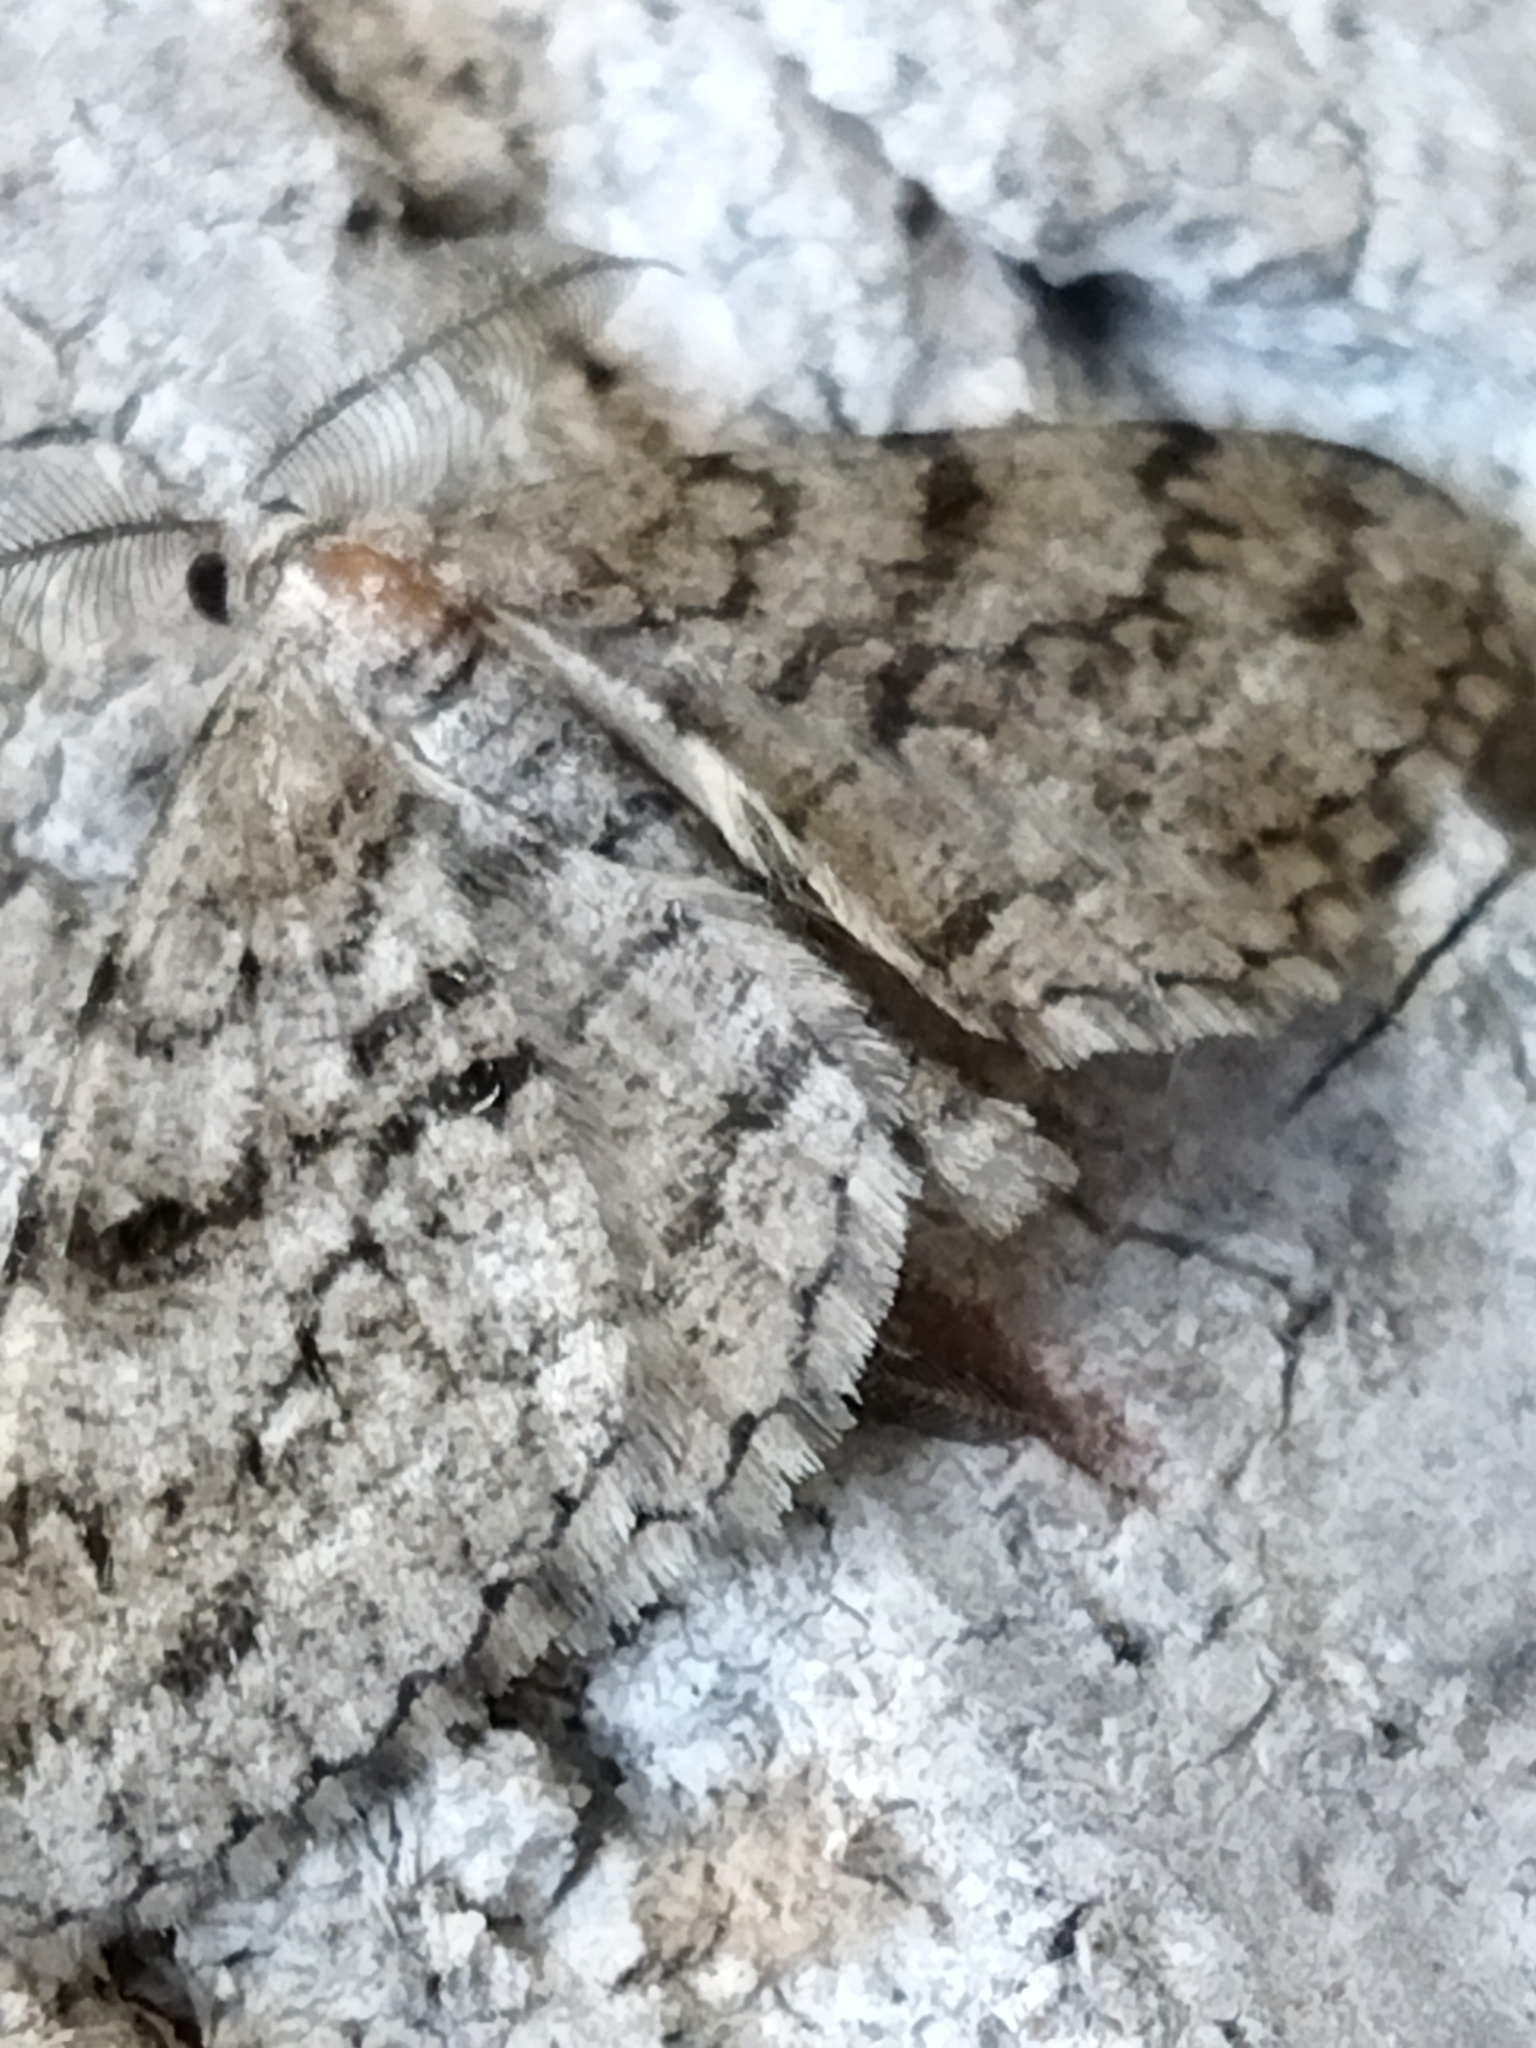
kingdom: Animalia
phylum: Arthropoda
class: Insecta
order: Lepidoptera
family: Geometridae
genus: Peribatodes
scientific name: Peribatodes secundaria
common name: Feathered beauty
